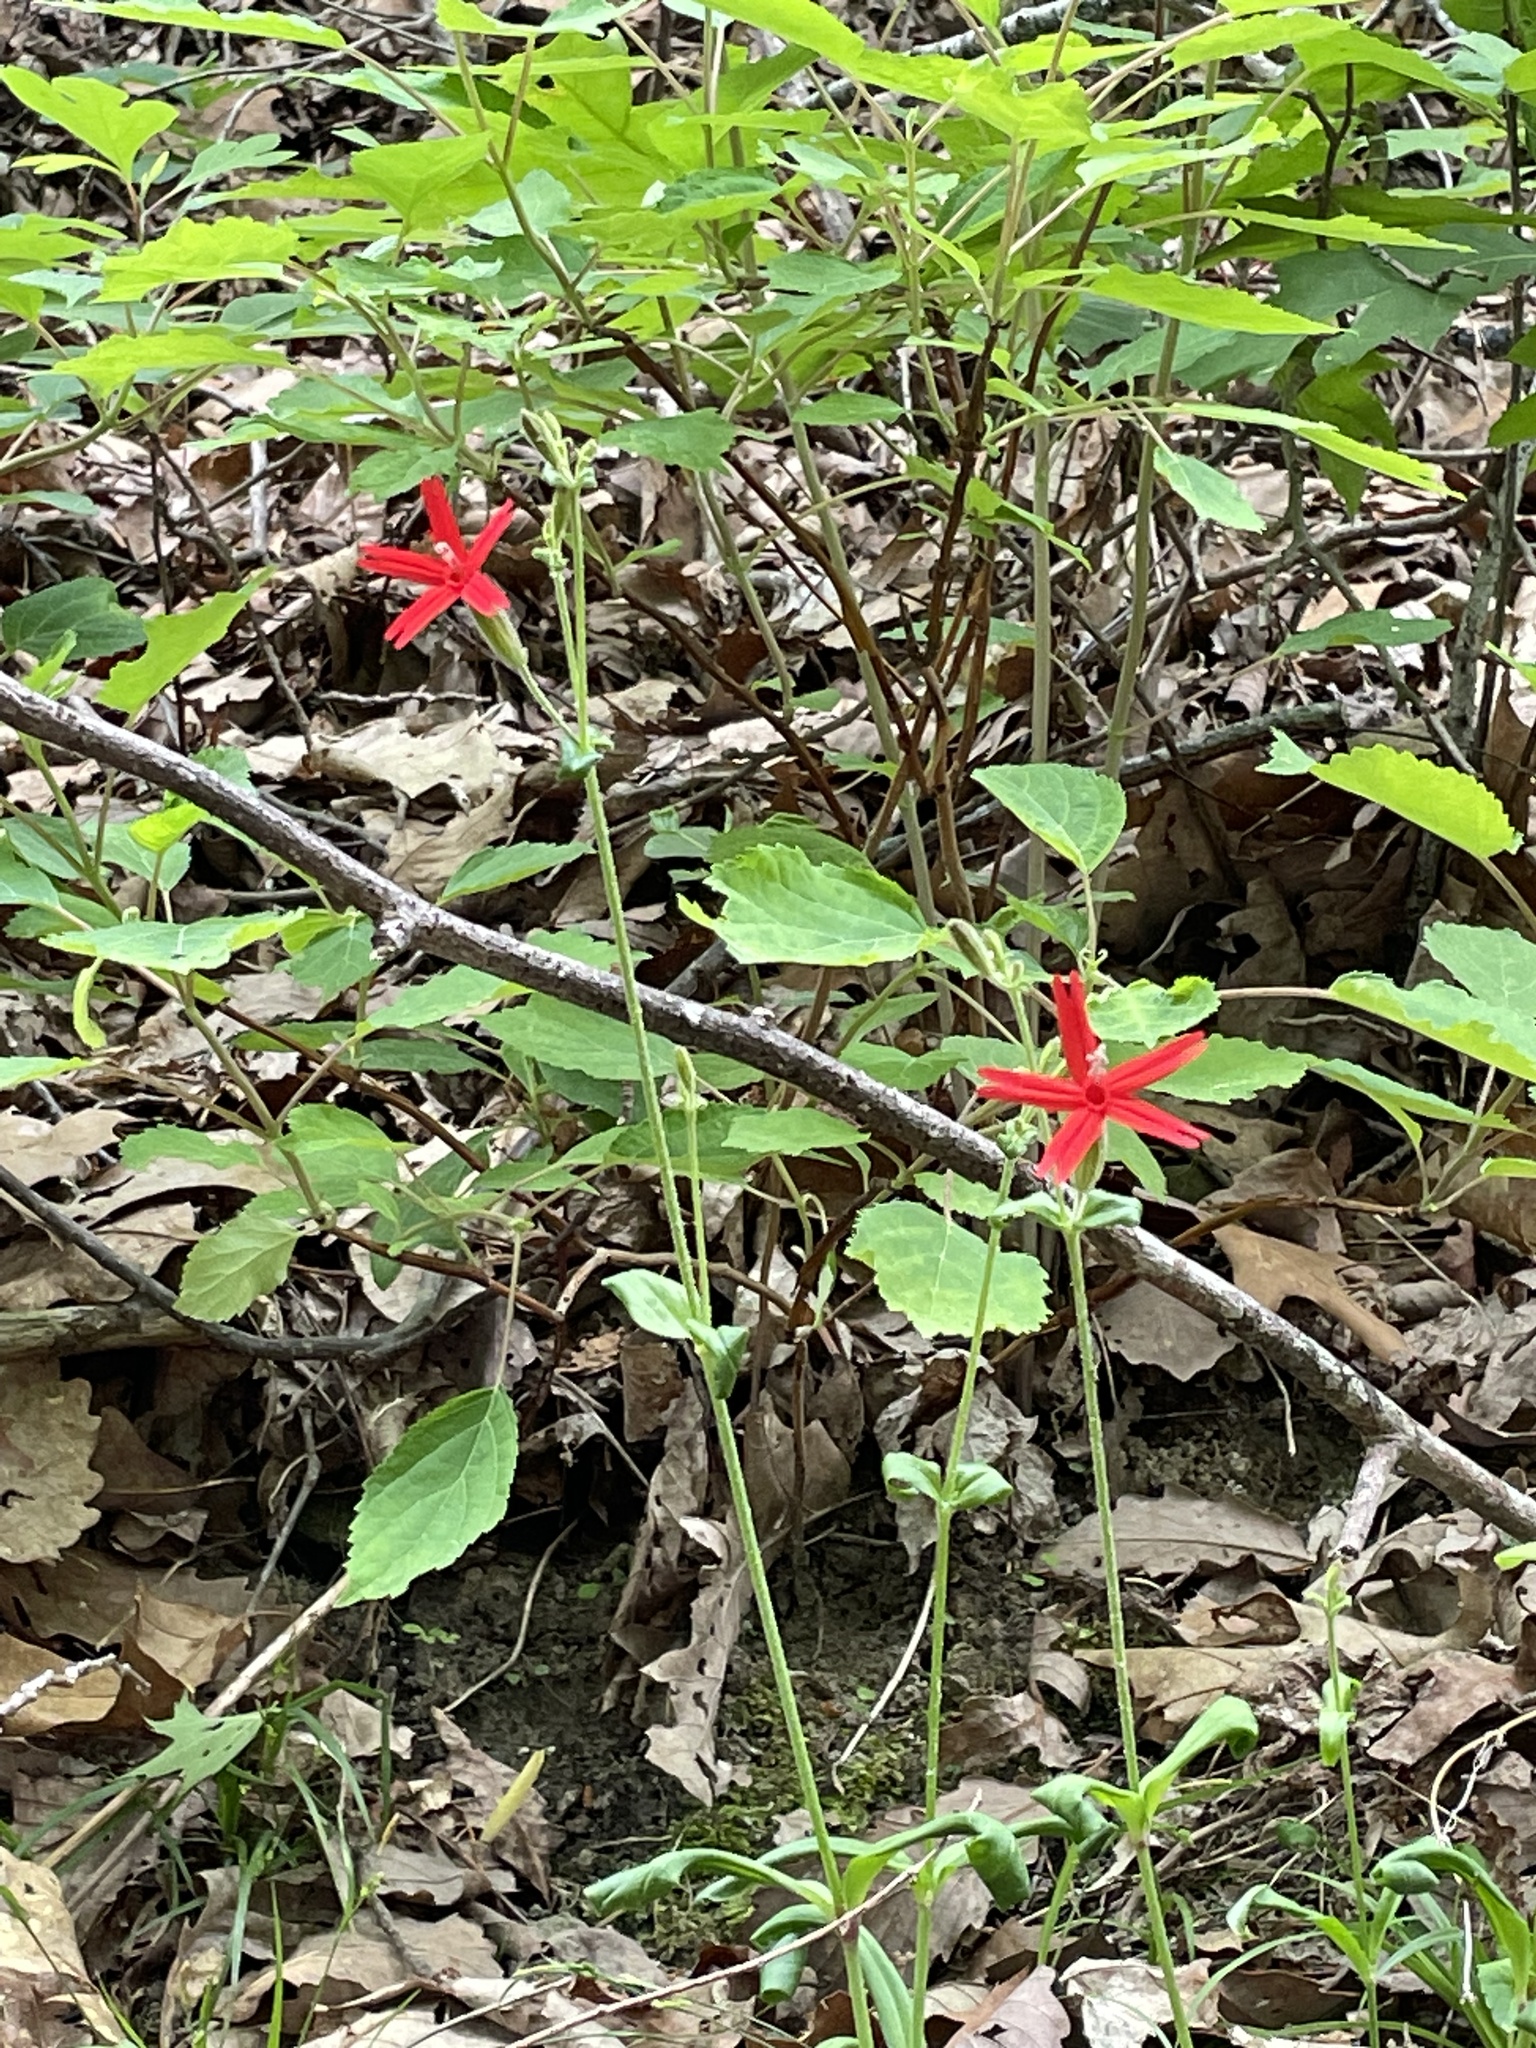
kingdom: Plantae
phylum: Tracheophyta
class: Magnoliopsida
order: Caryophyllales
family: Caryophyllaceae
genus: Silene
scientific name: Silene virginica
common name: Fire-pink
